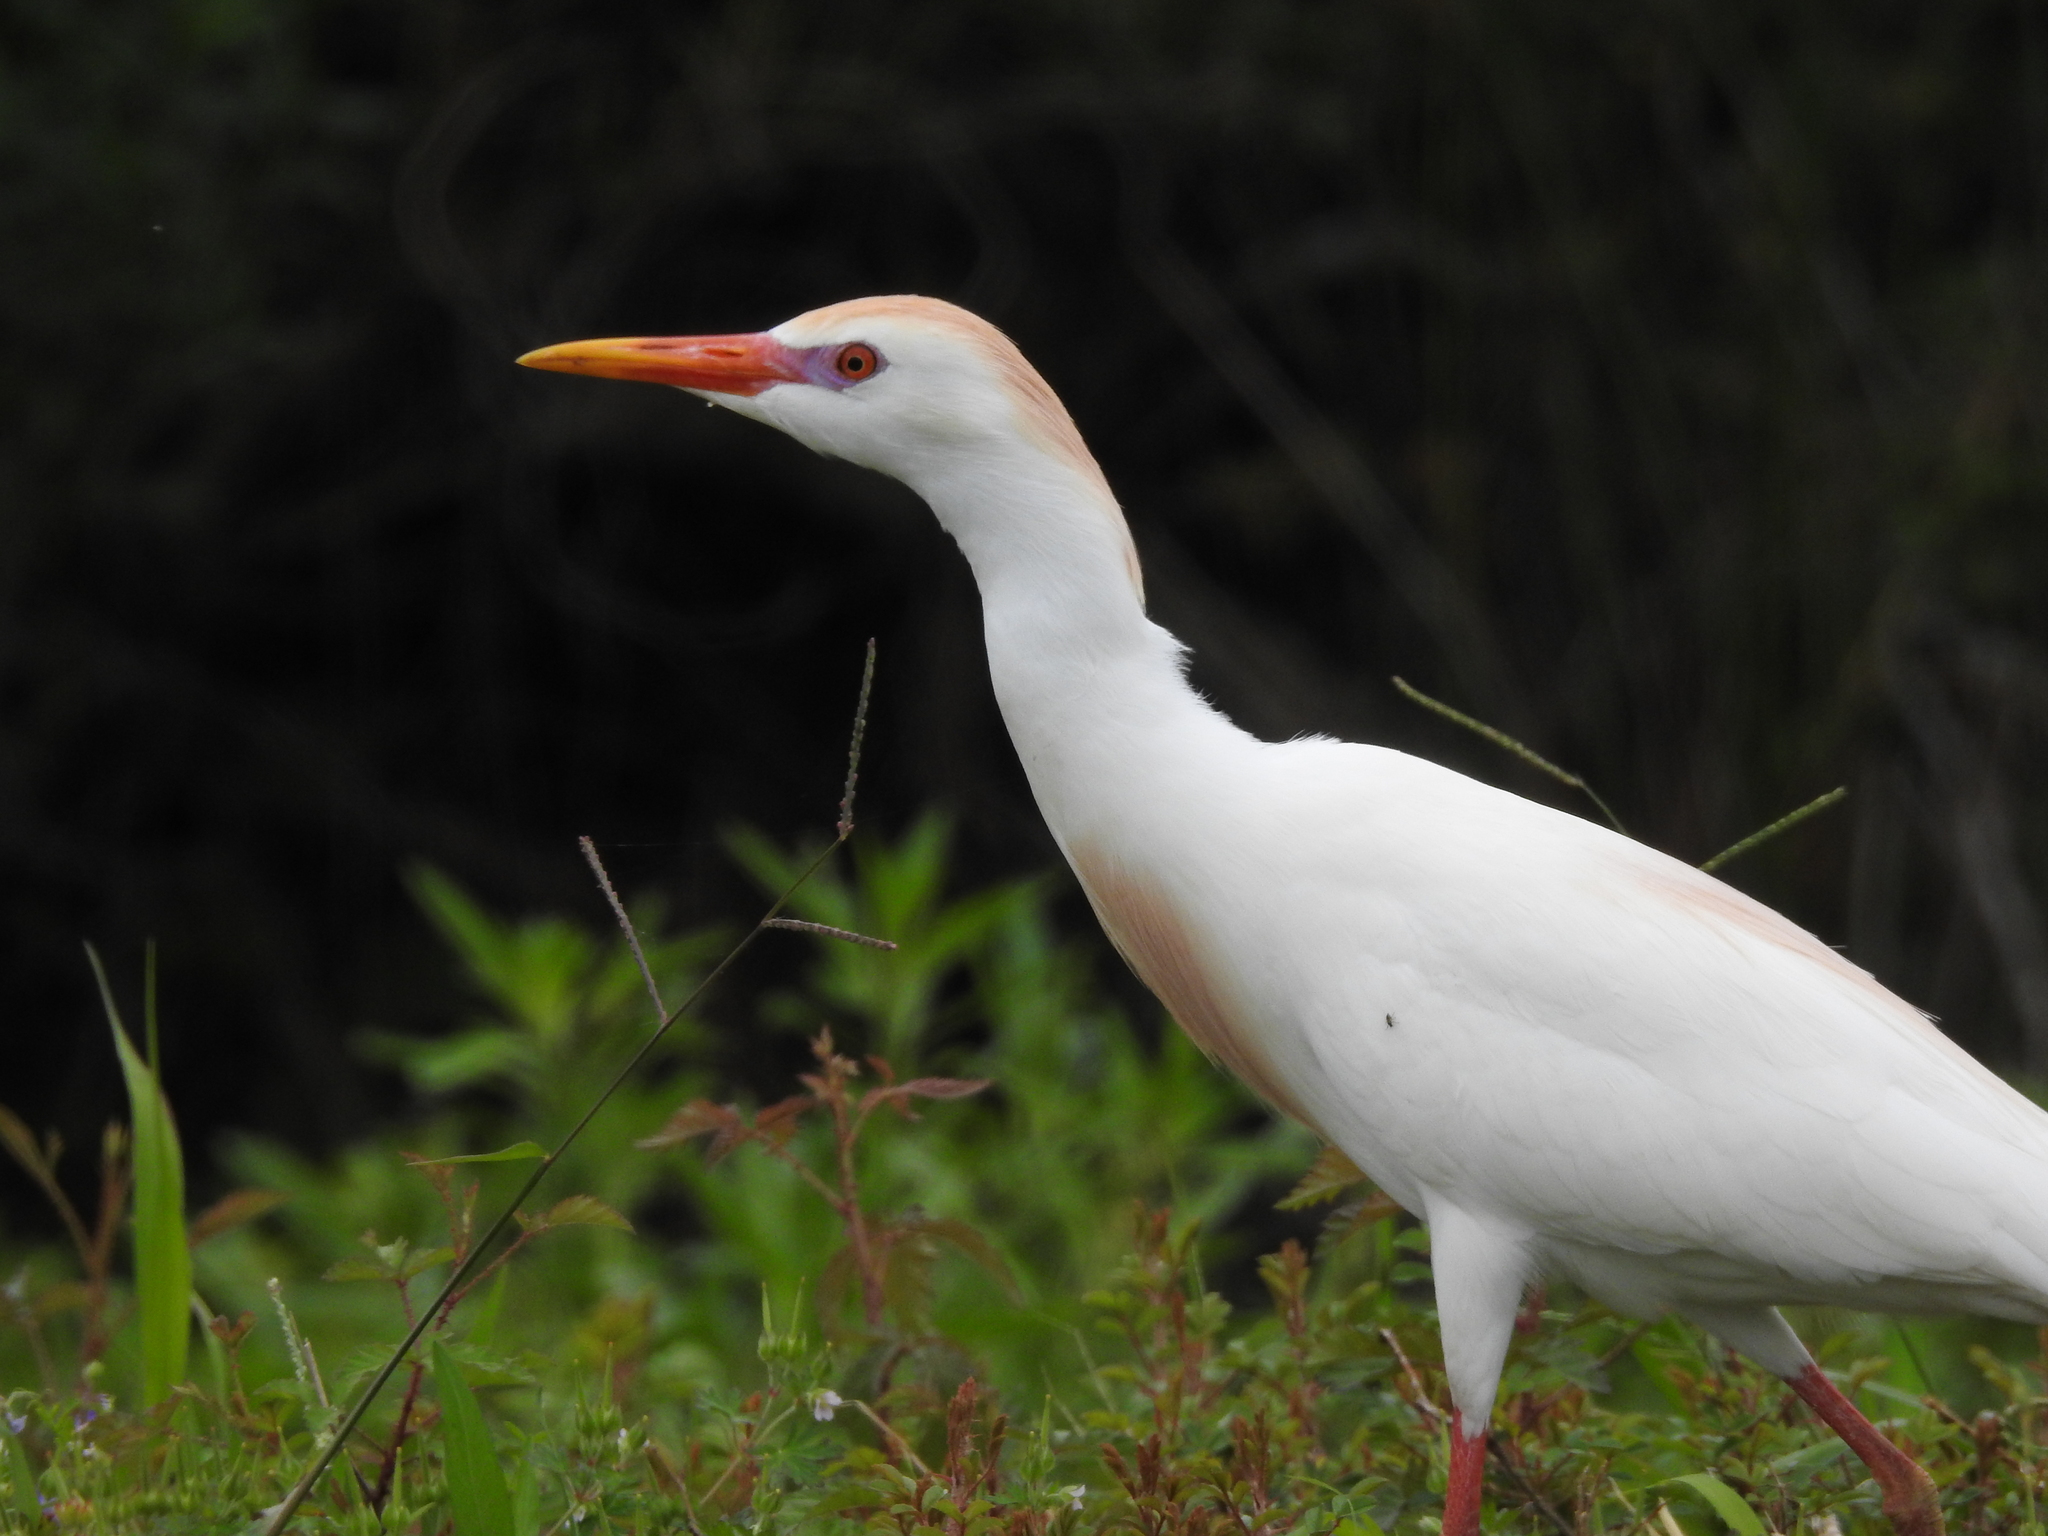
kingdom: Animalia
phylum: Chordata
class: Aves
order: Pelecaniformes
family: Ardeidae
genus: Bubulcus
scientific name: Bubulcus ibis
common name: Cattle egret
